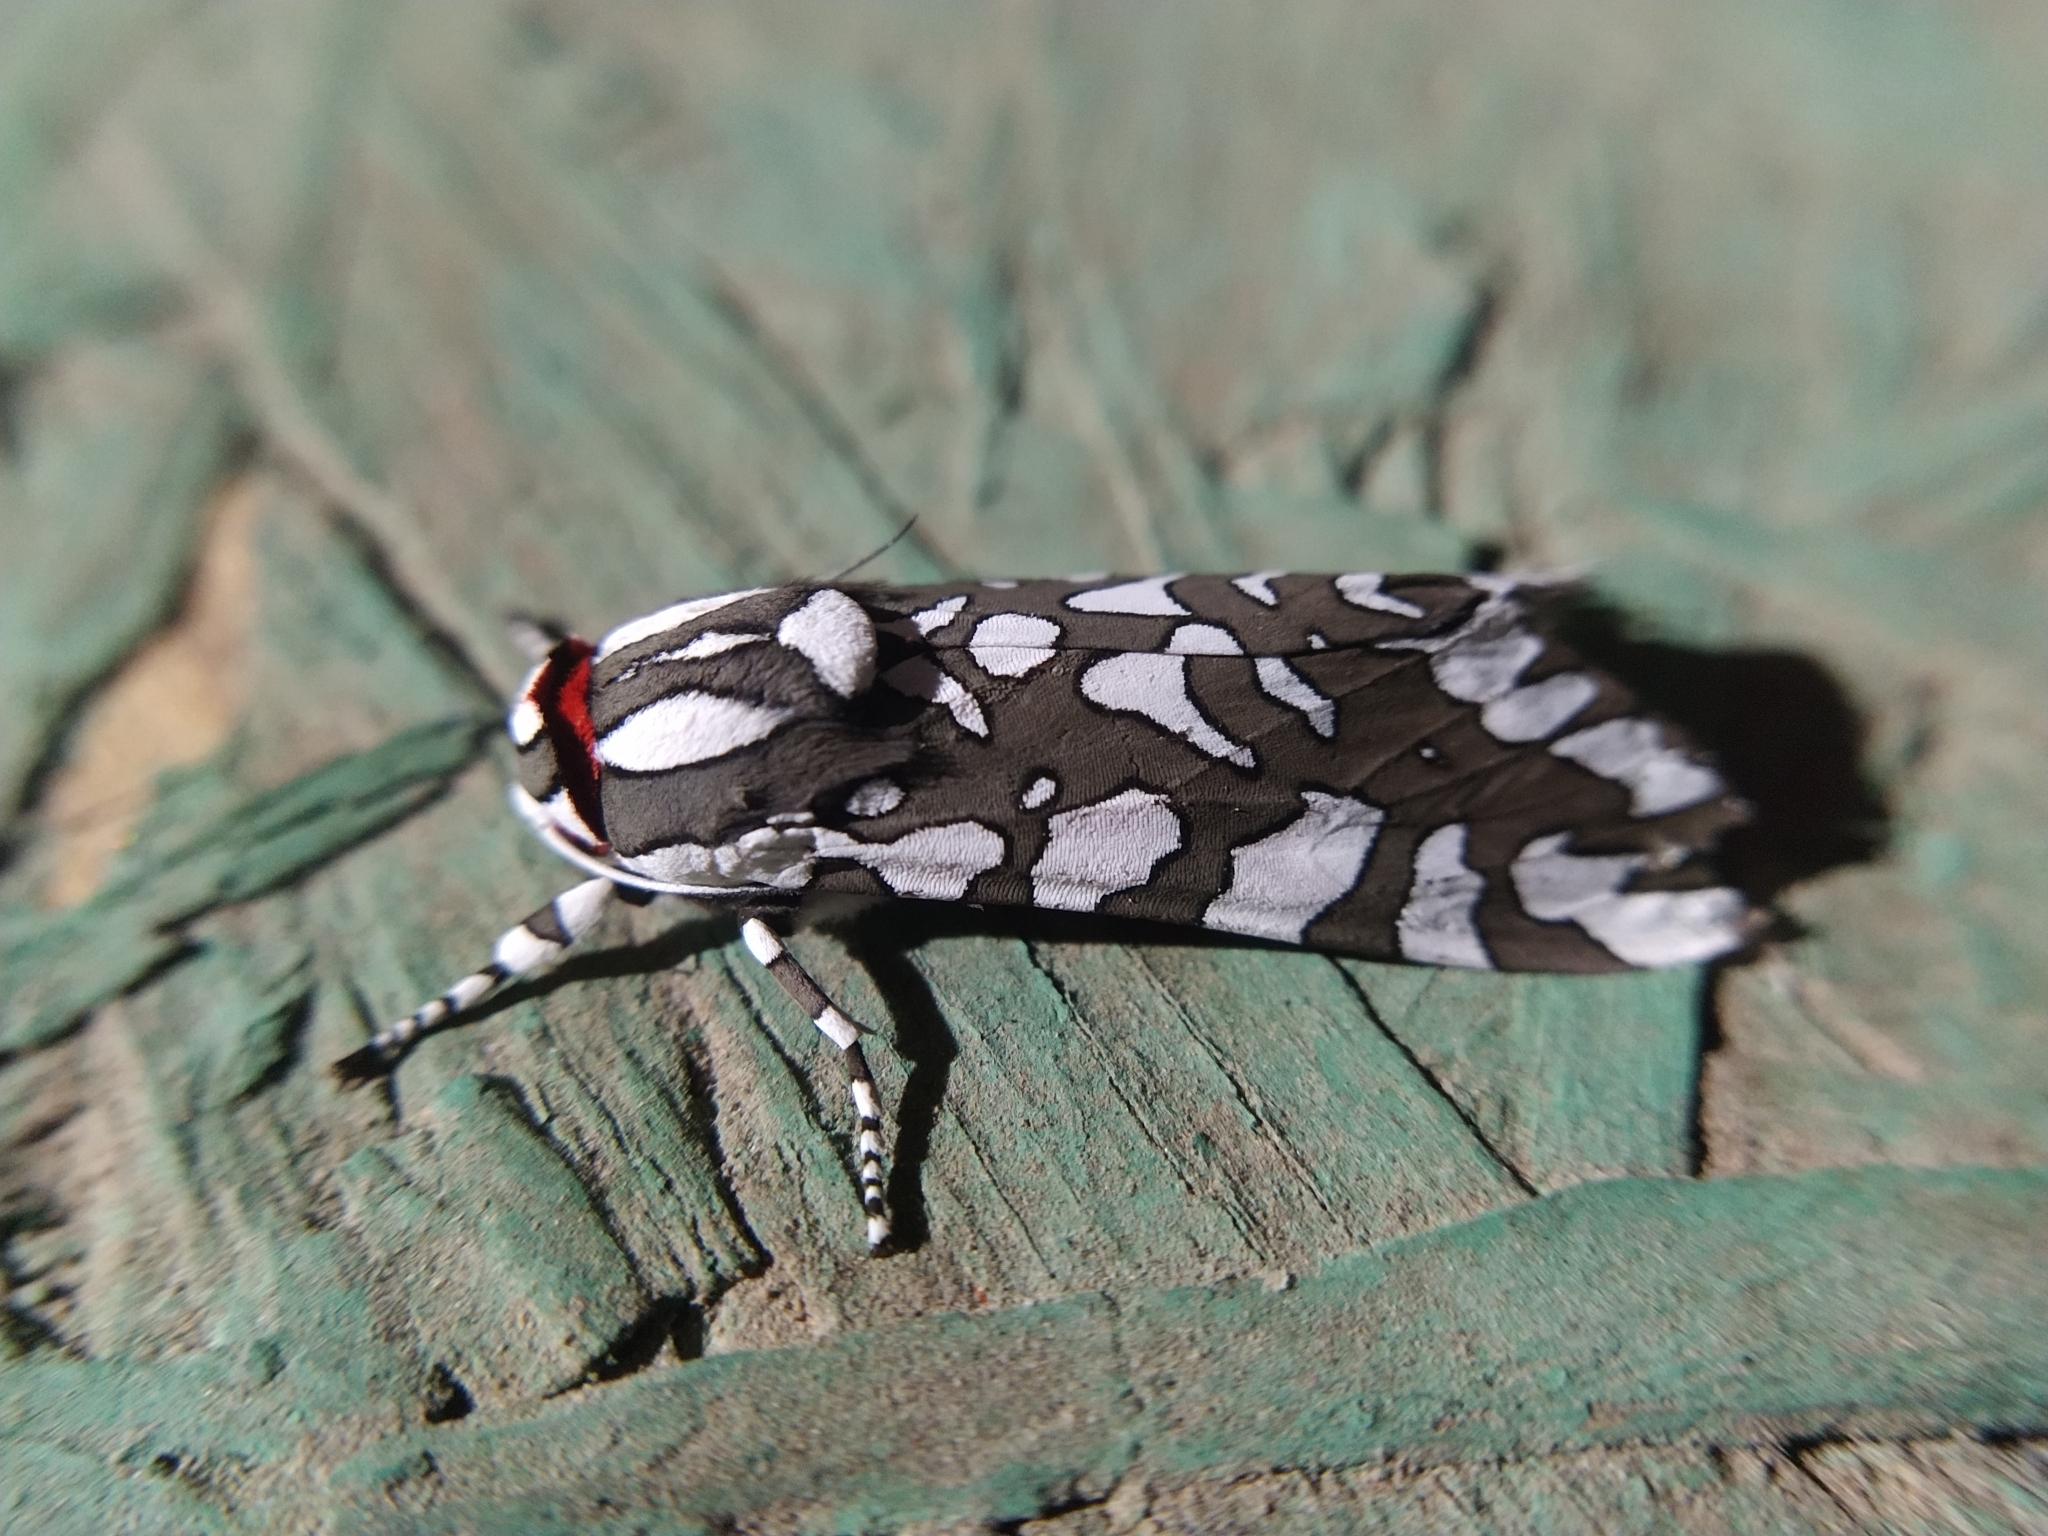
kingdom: Animalia
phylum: Arthropoda
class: Insecta
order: Lepidoptera
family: Erebidae
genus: Arachnis
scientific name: Arachnis dilecta
